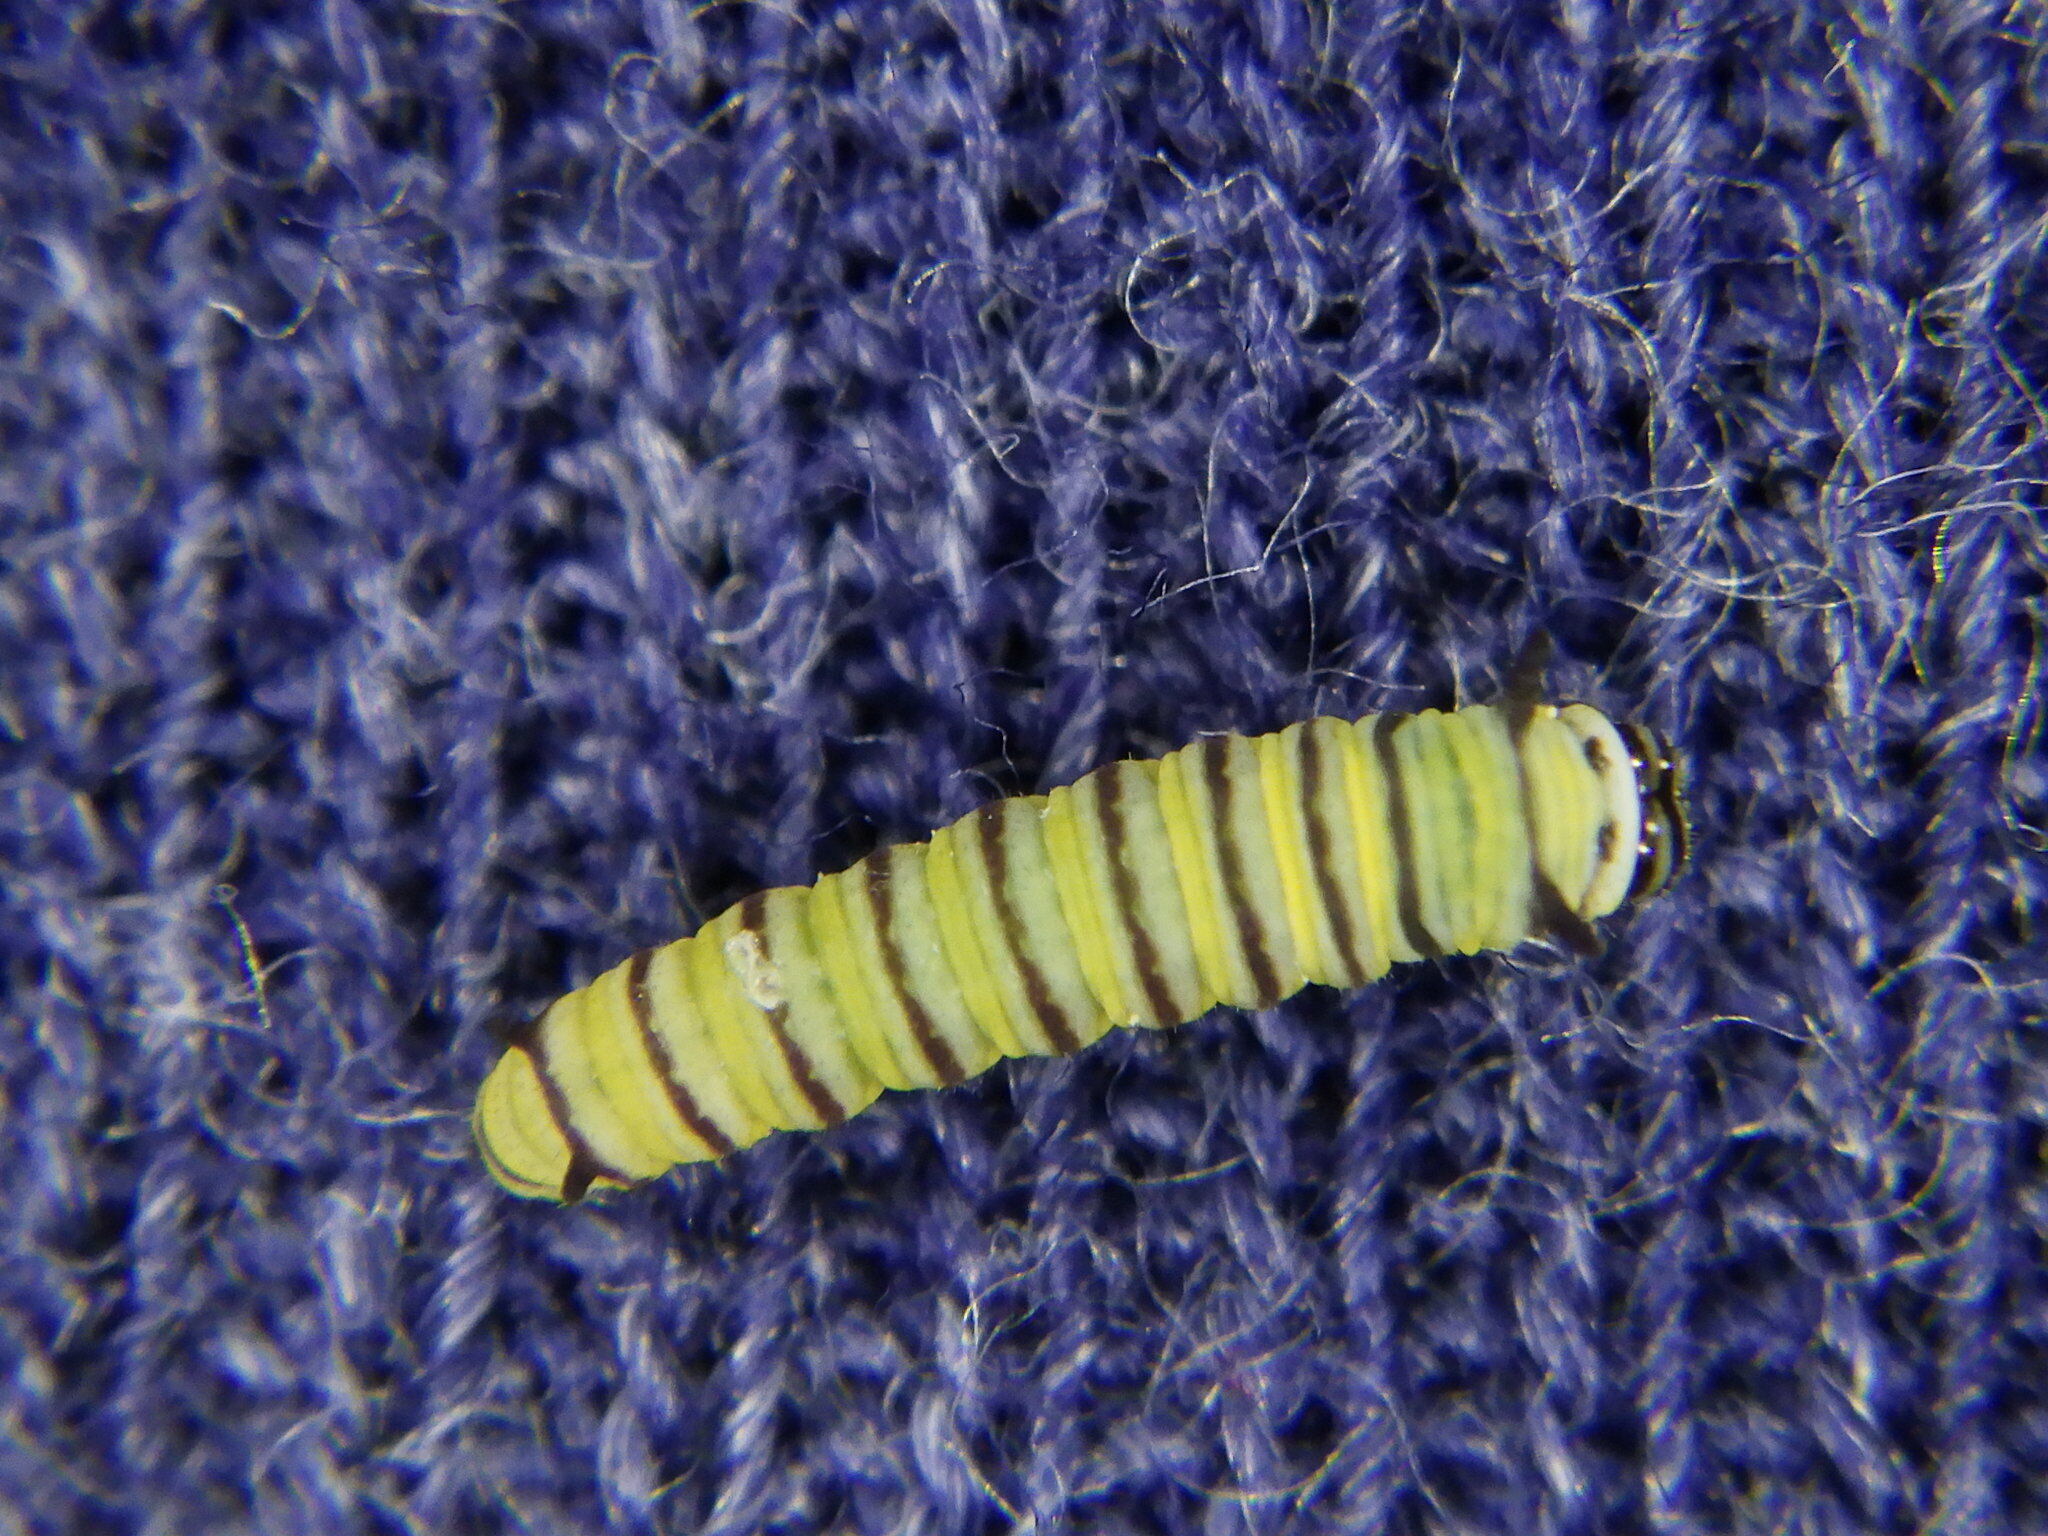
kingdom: Animalia
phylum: Arthropoda
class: Insecta
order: Lepidoptera
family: Nymphalidae
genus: Danaus
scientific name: Danaus plexippus
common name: Monarch
